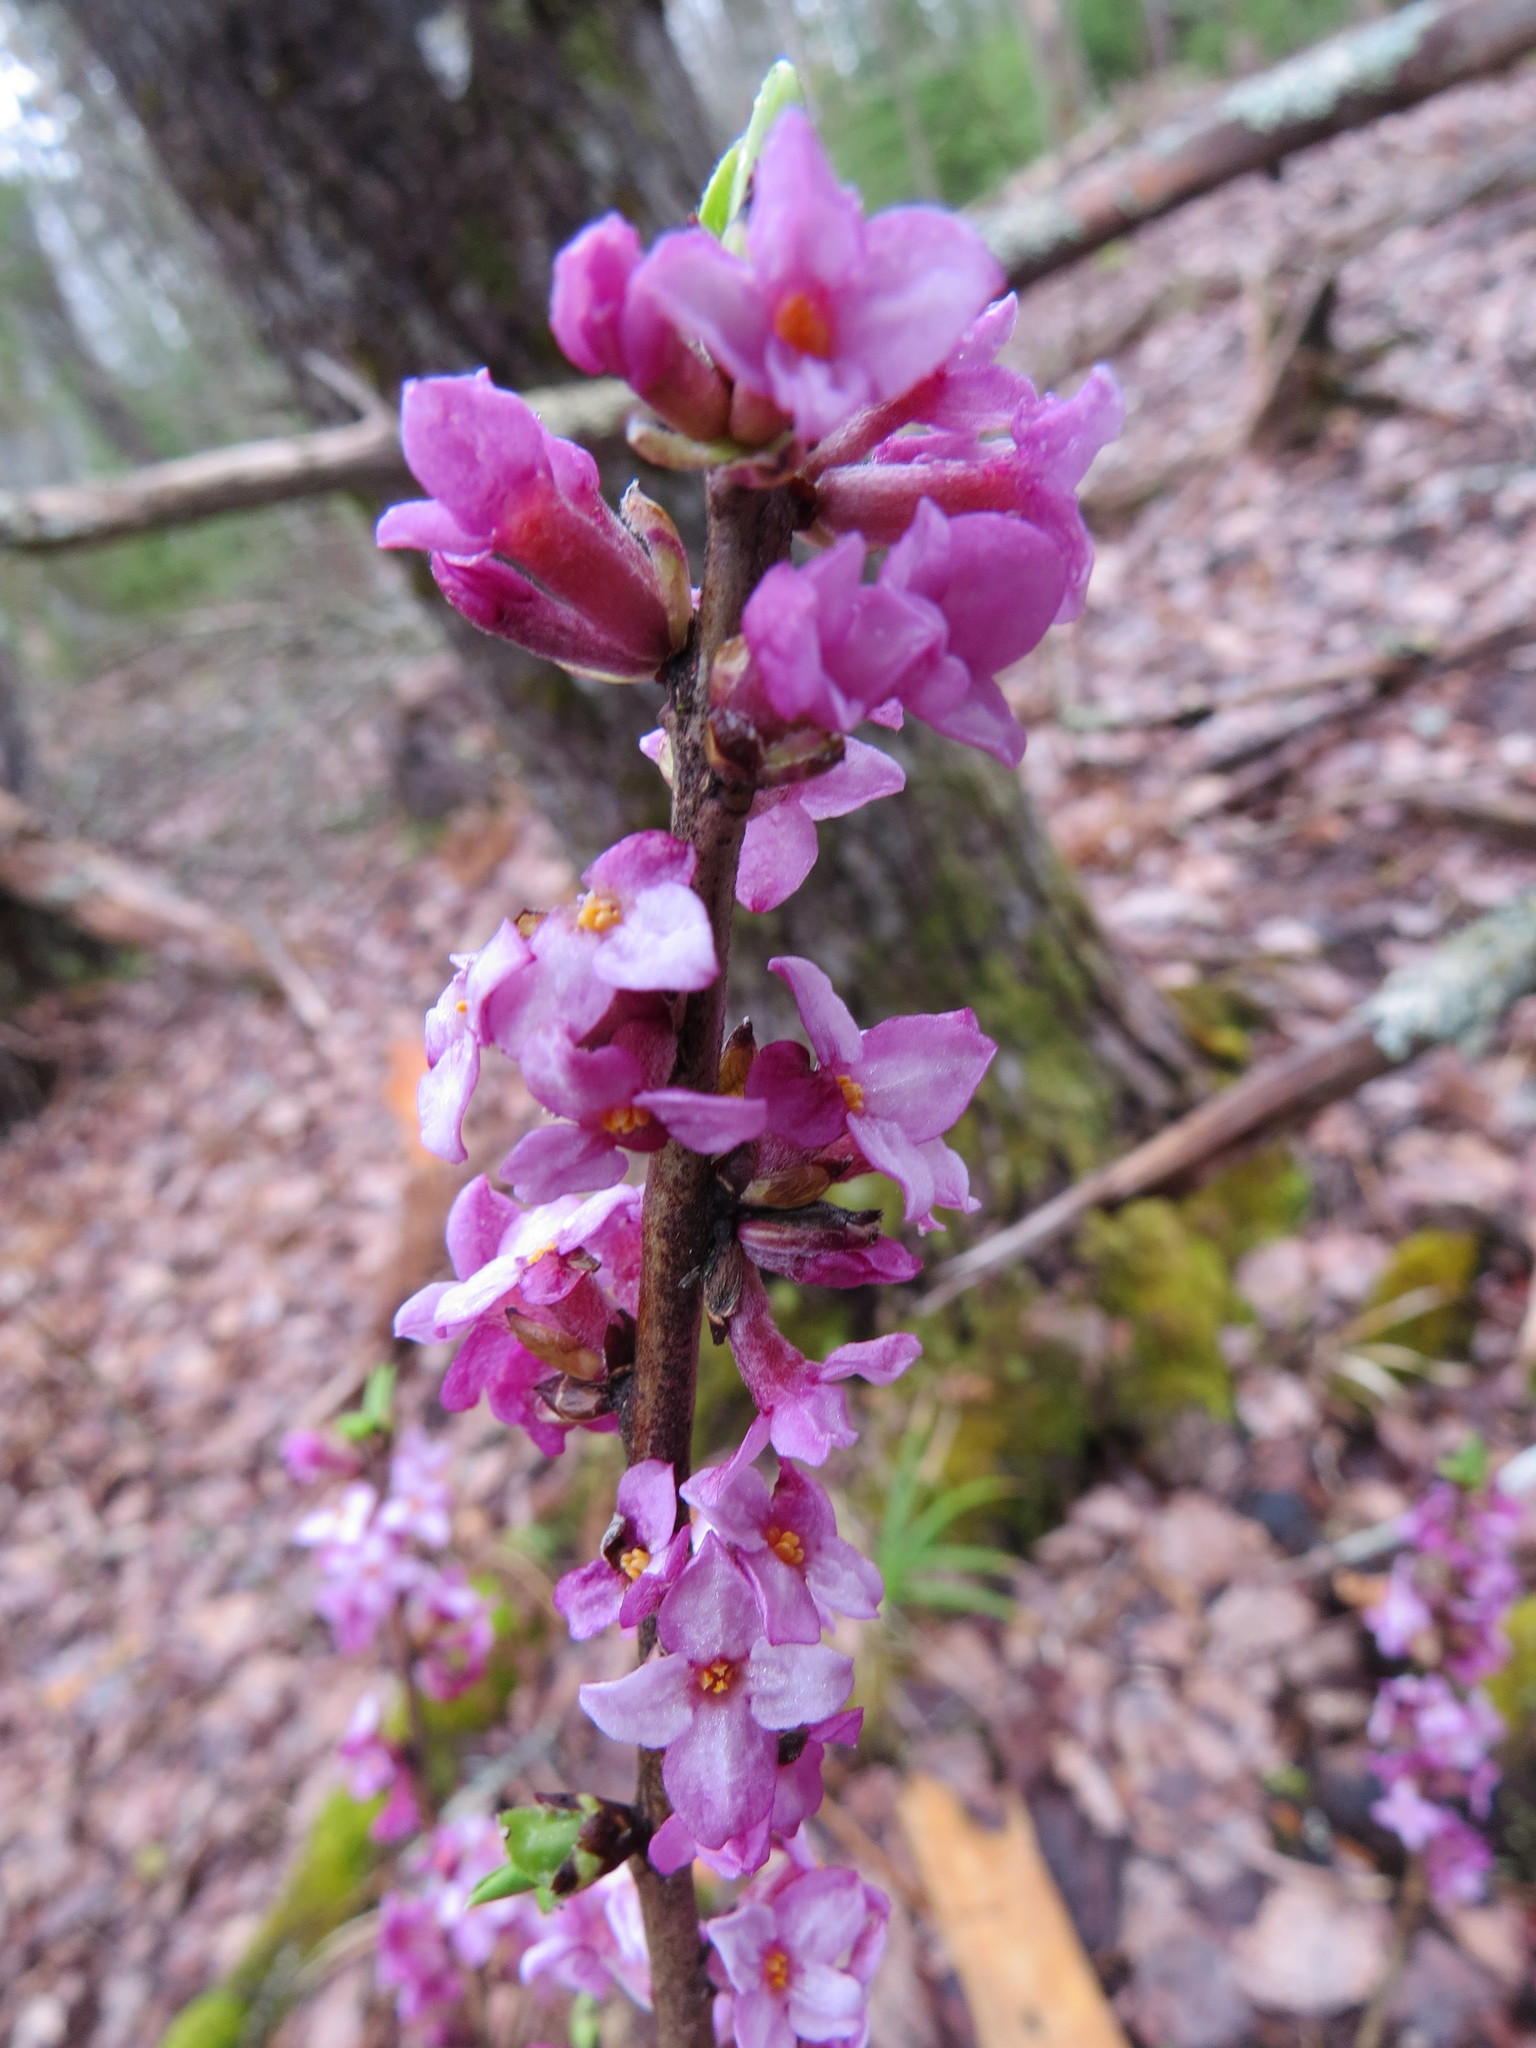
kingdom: Plantae
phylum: Tracheophyta
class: Magnoliopsida
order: Malvales
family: Thymelaeaceae
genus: Daphne
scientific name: Daphne mezereum
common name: Mezereon
